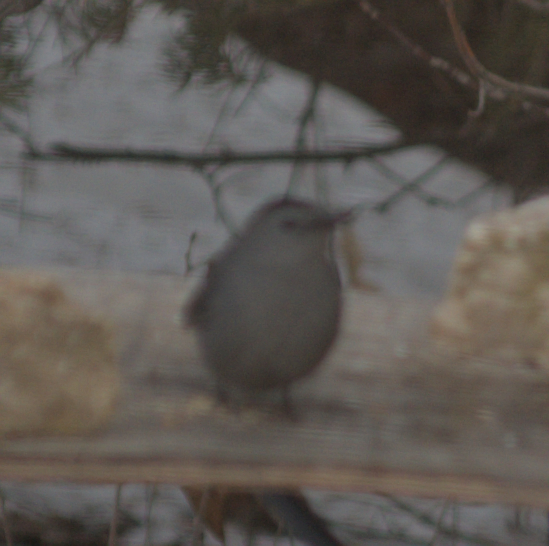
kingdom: Animalia
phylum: Chordata
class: Aves
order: Passeriformes
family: Mimidae
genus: Dumetella
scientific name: Dumetella carolinensis
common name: Gray catbird
